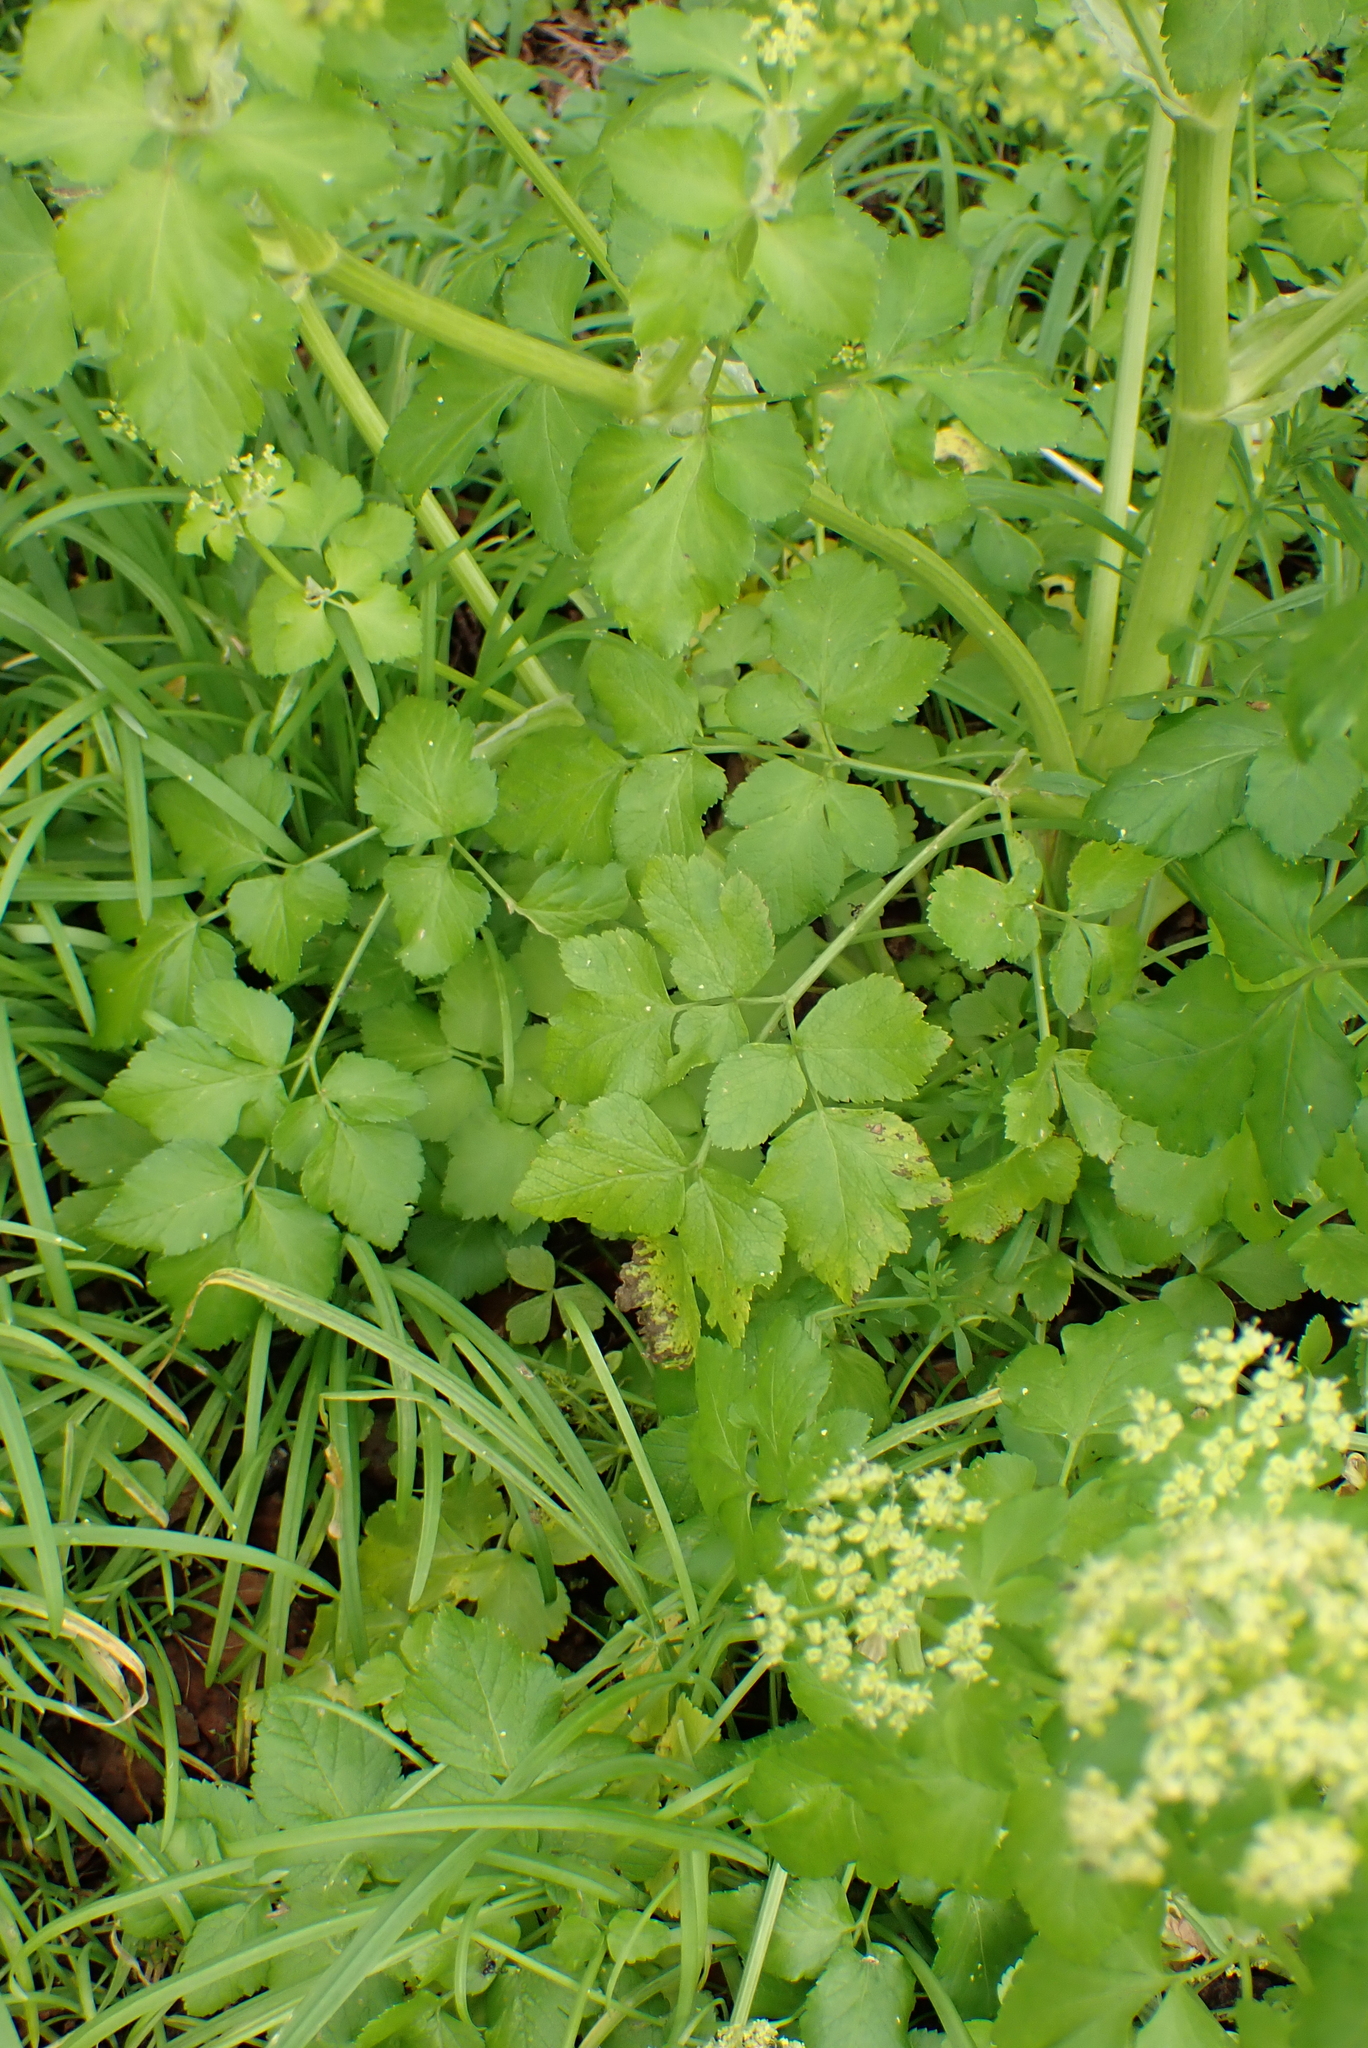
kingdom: Plantae
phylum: Tracheophyta
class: Magnoliopsida
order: Apiales
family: Apiaceae
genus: Smyrnium
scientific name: Smyrnium olusatrum
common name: Alexanders
